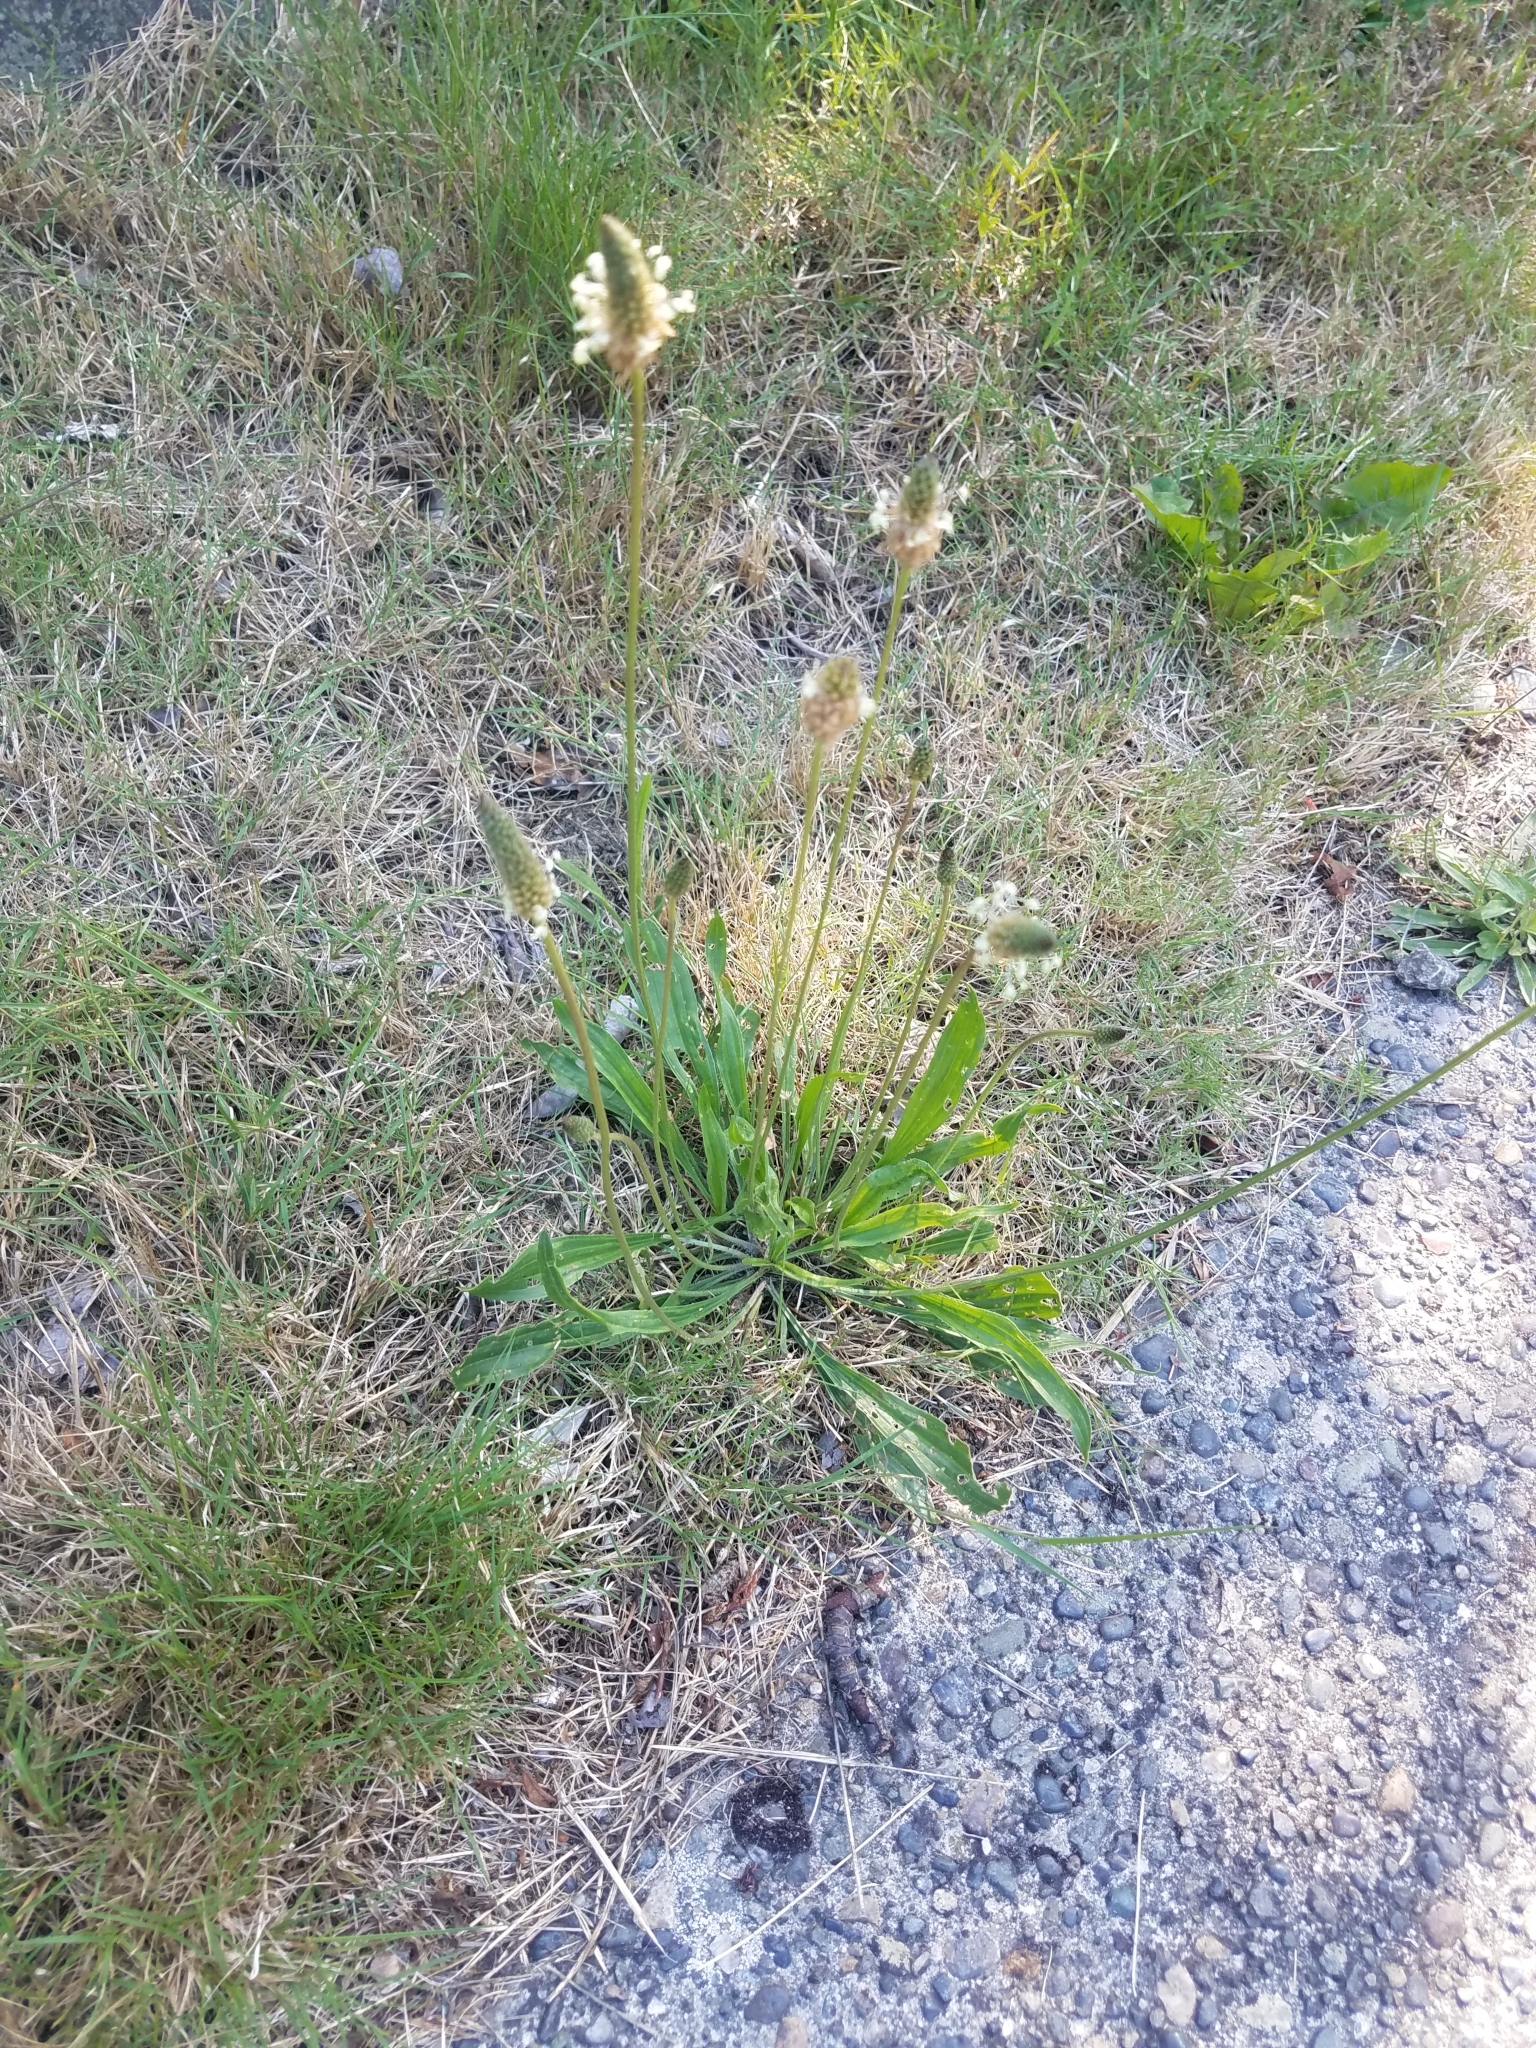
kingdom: Plantae
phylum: Tracheophyta
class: Magnoliopsida
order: Lamiales
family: Plantaginaceae
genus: Plantago
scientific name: Plantago lanceolata
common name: Ribwort plantain
